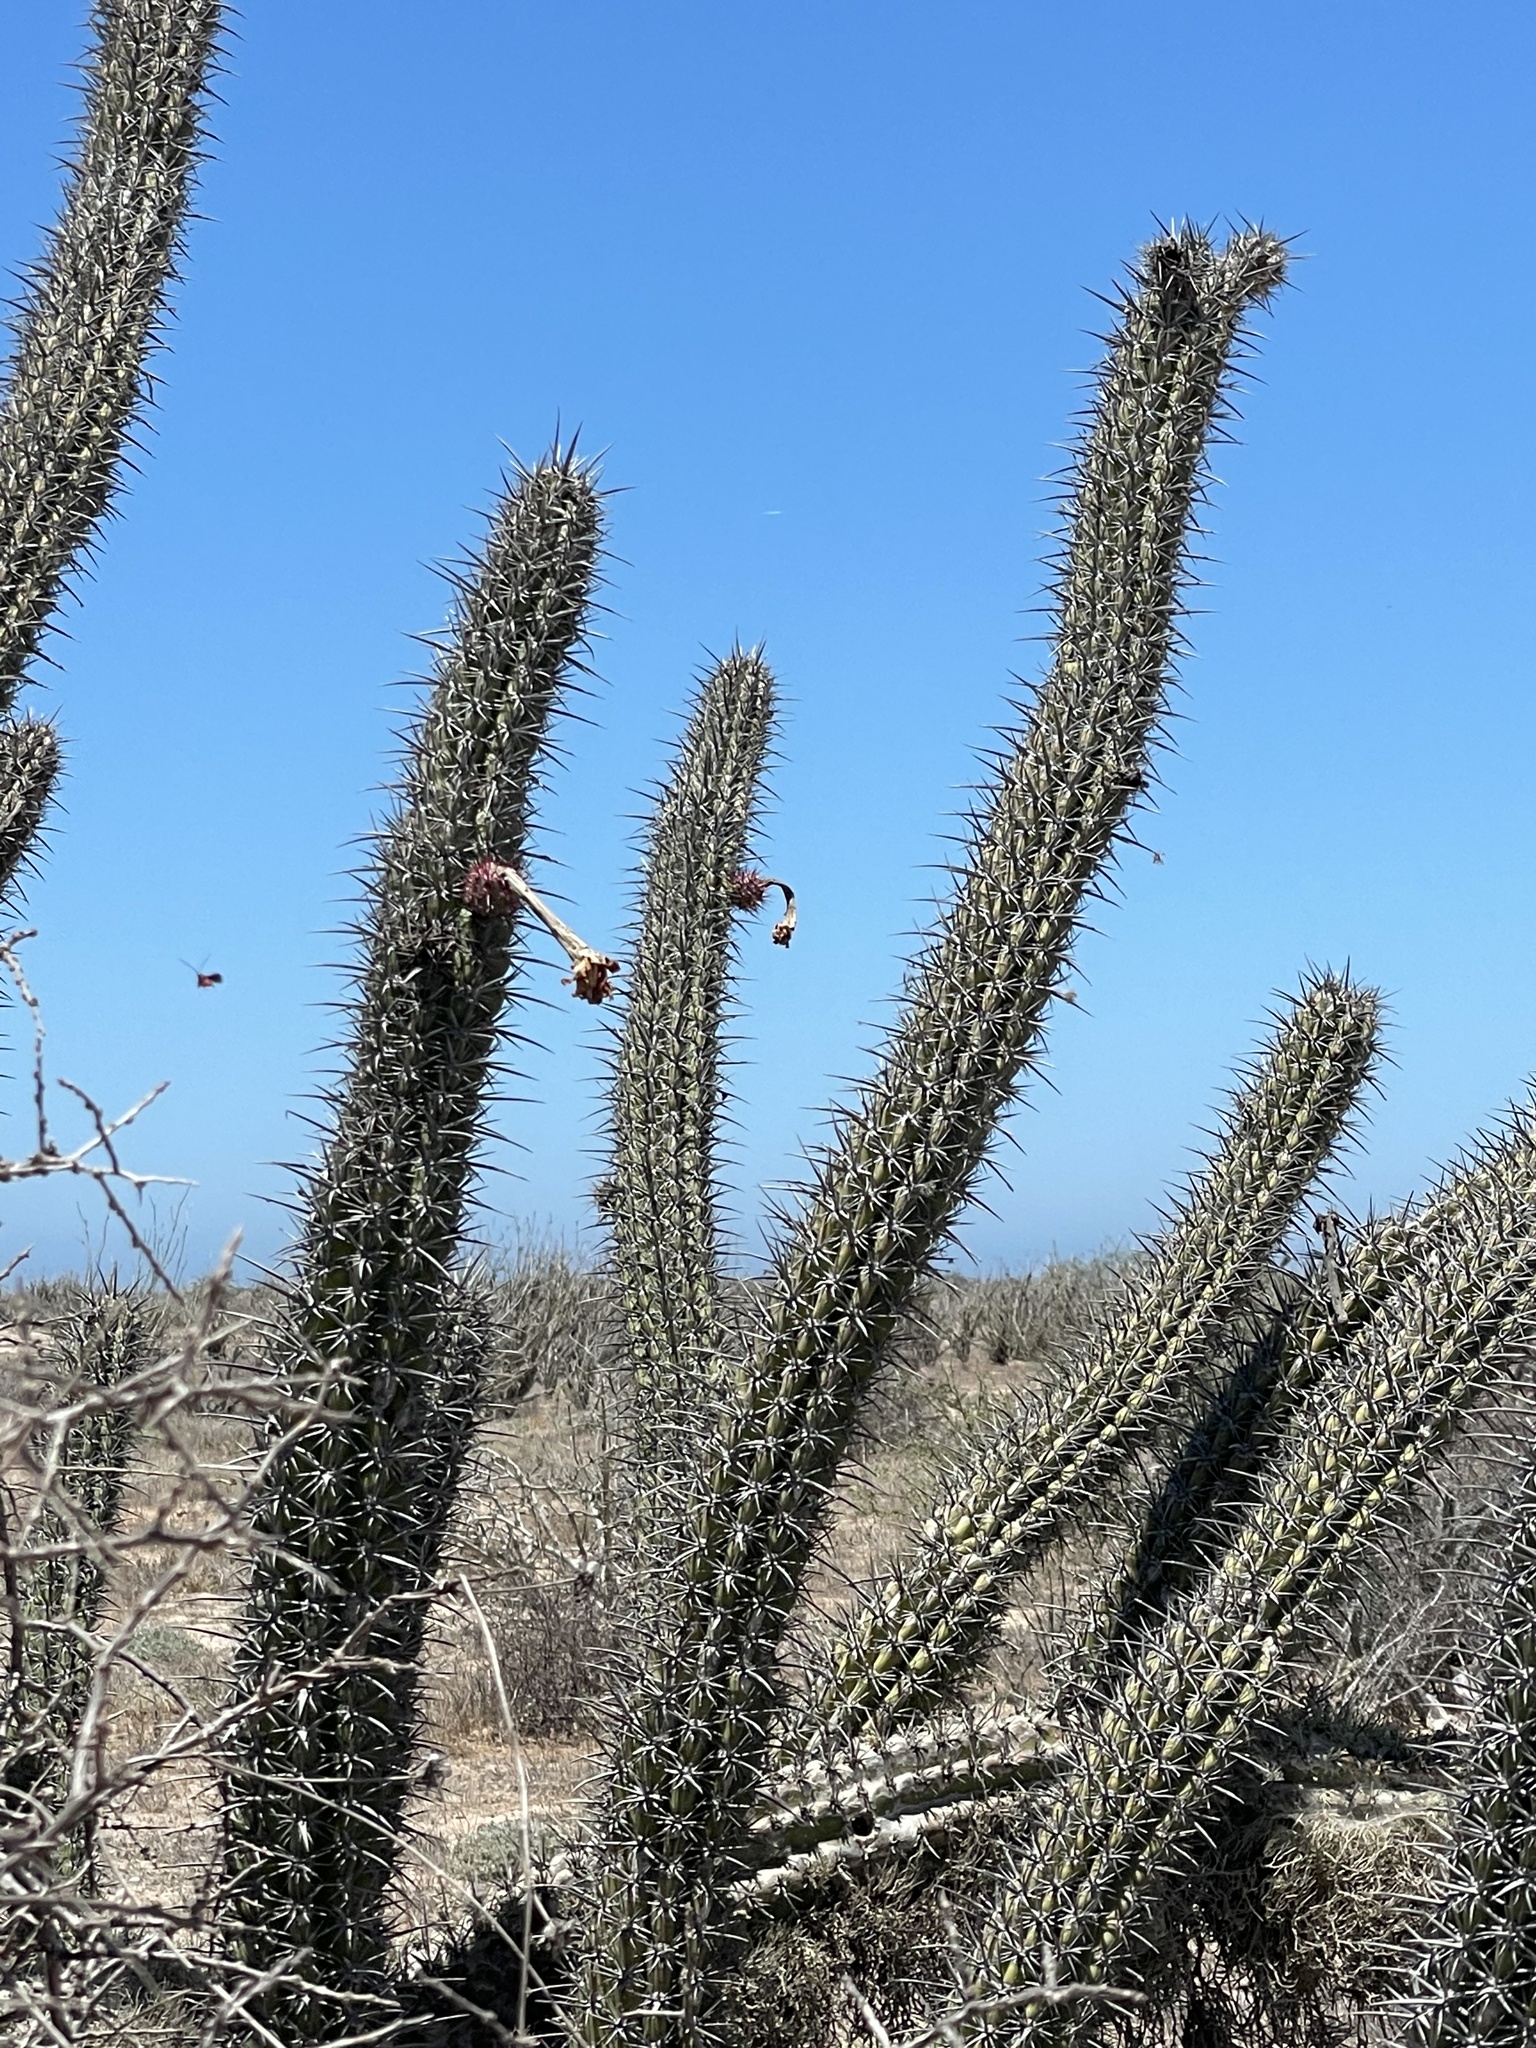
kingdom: Plantae
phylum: Tracheophyta
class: Magnoliopsida
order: Caryophyllales
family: Cactaceae
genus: Stenocereus
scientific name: Stenocereus gummosus
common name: Dagger cactus
